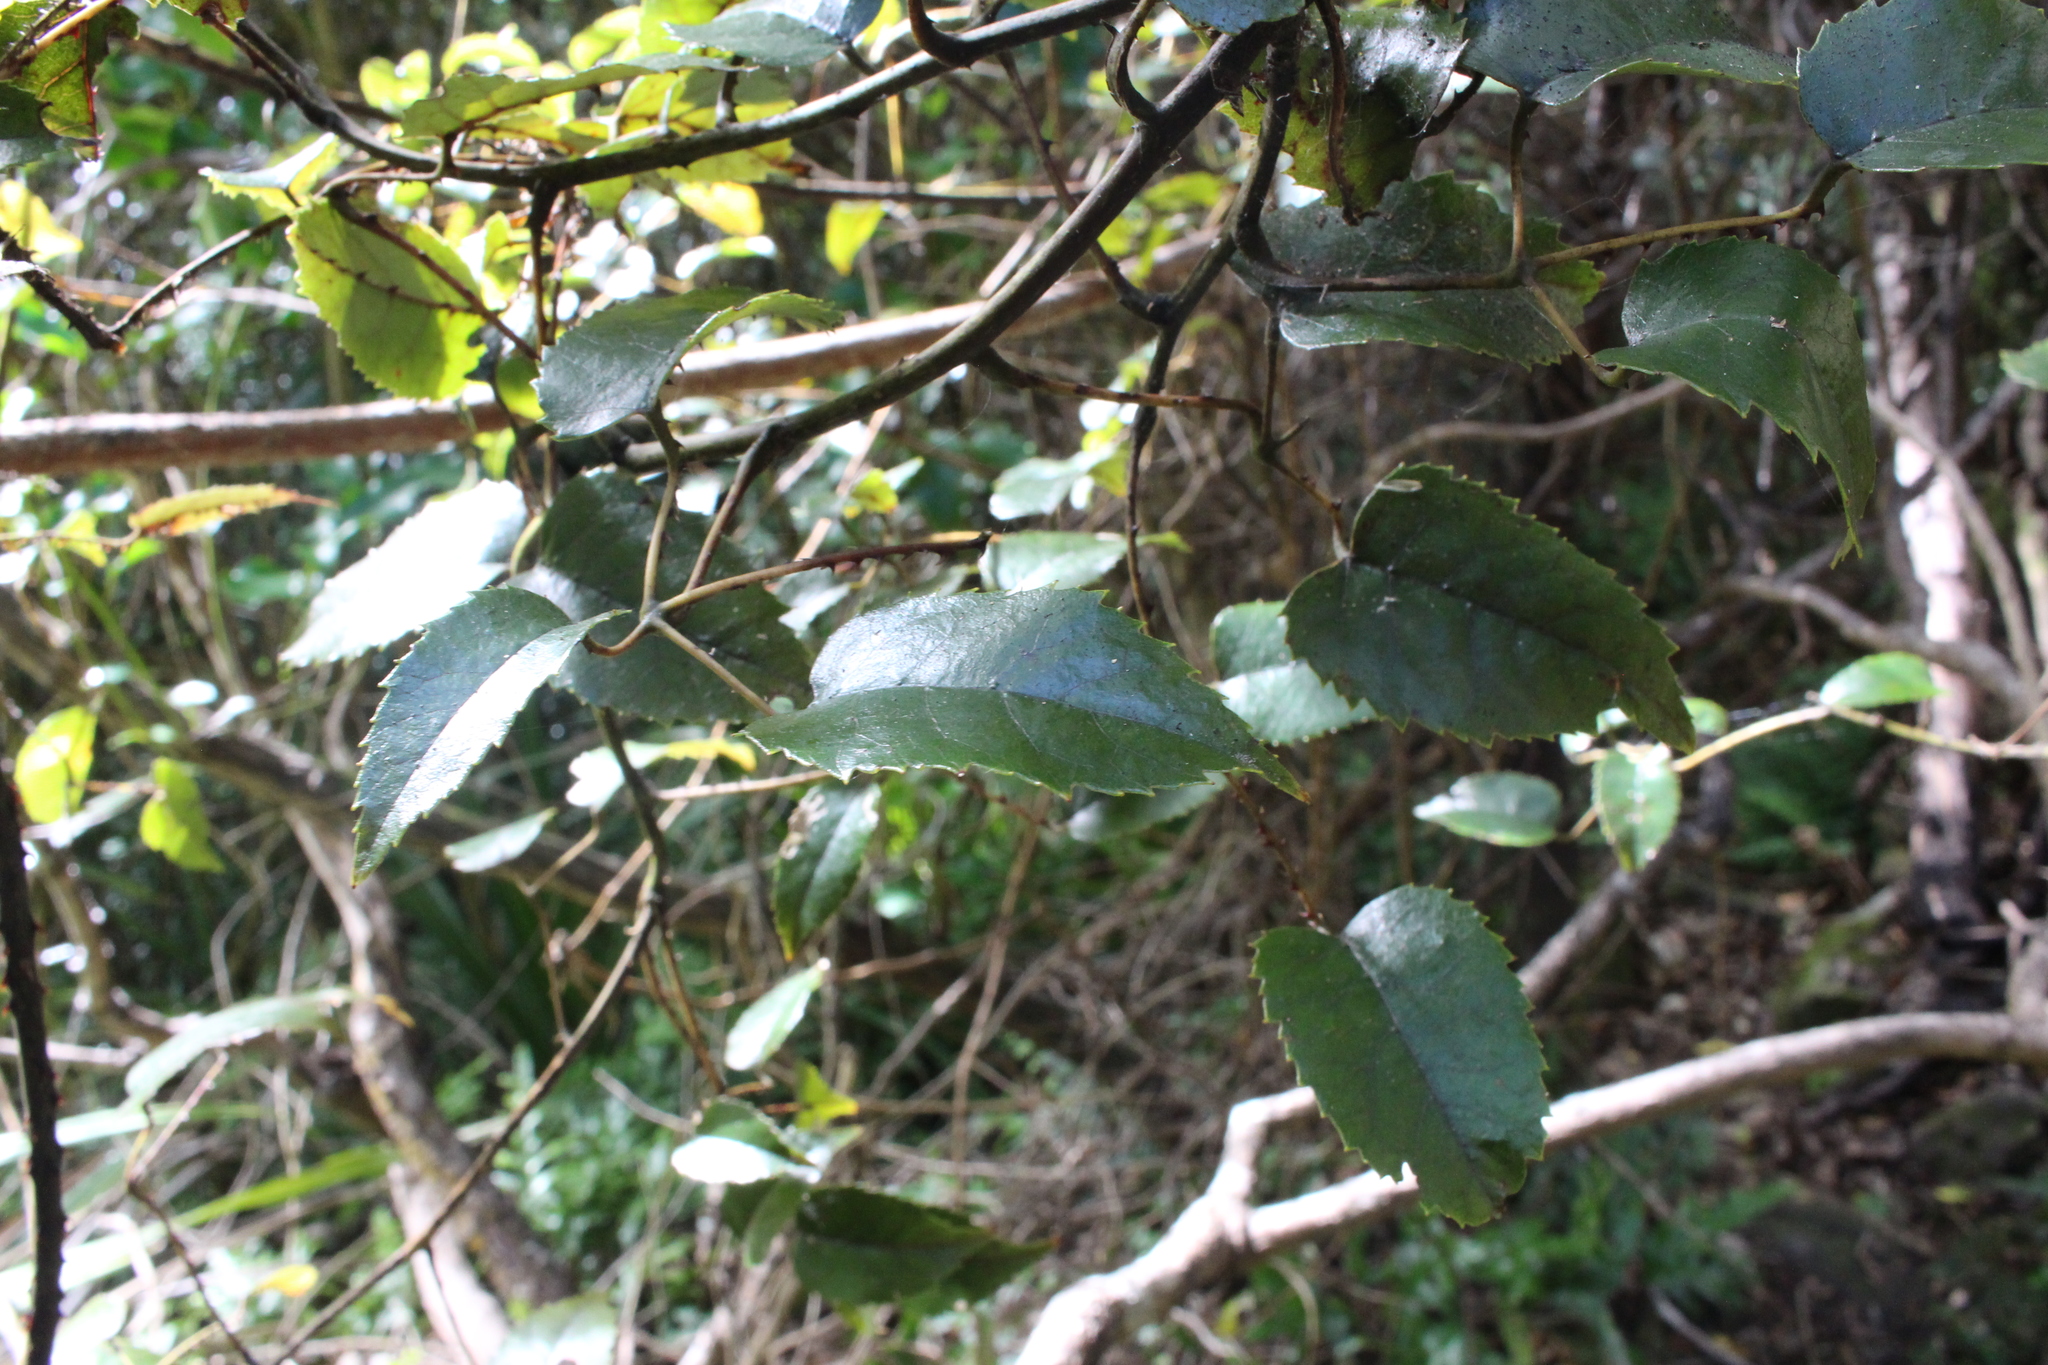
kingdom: Plantae
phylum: Tracheophyta
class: Magnoliopsida
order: Rosales
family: Rosaceae
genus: Rubus
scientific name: Rubus cissoides
